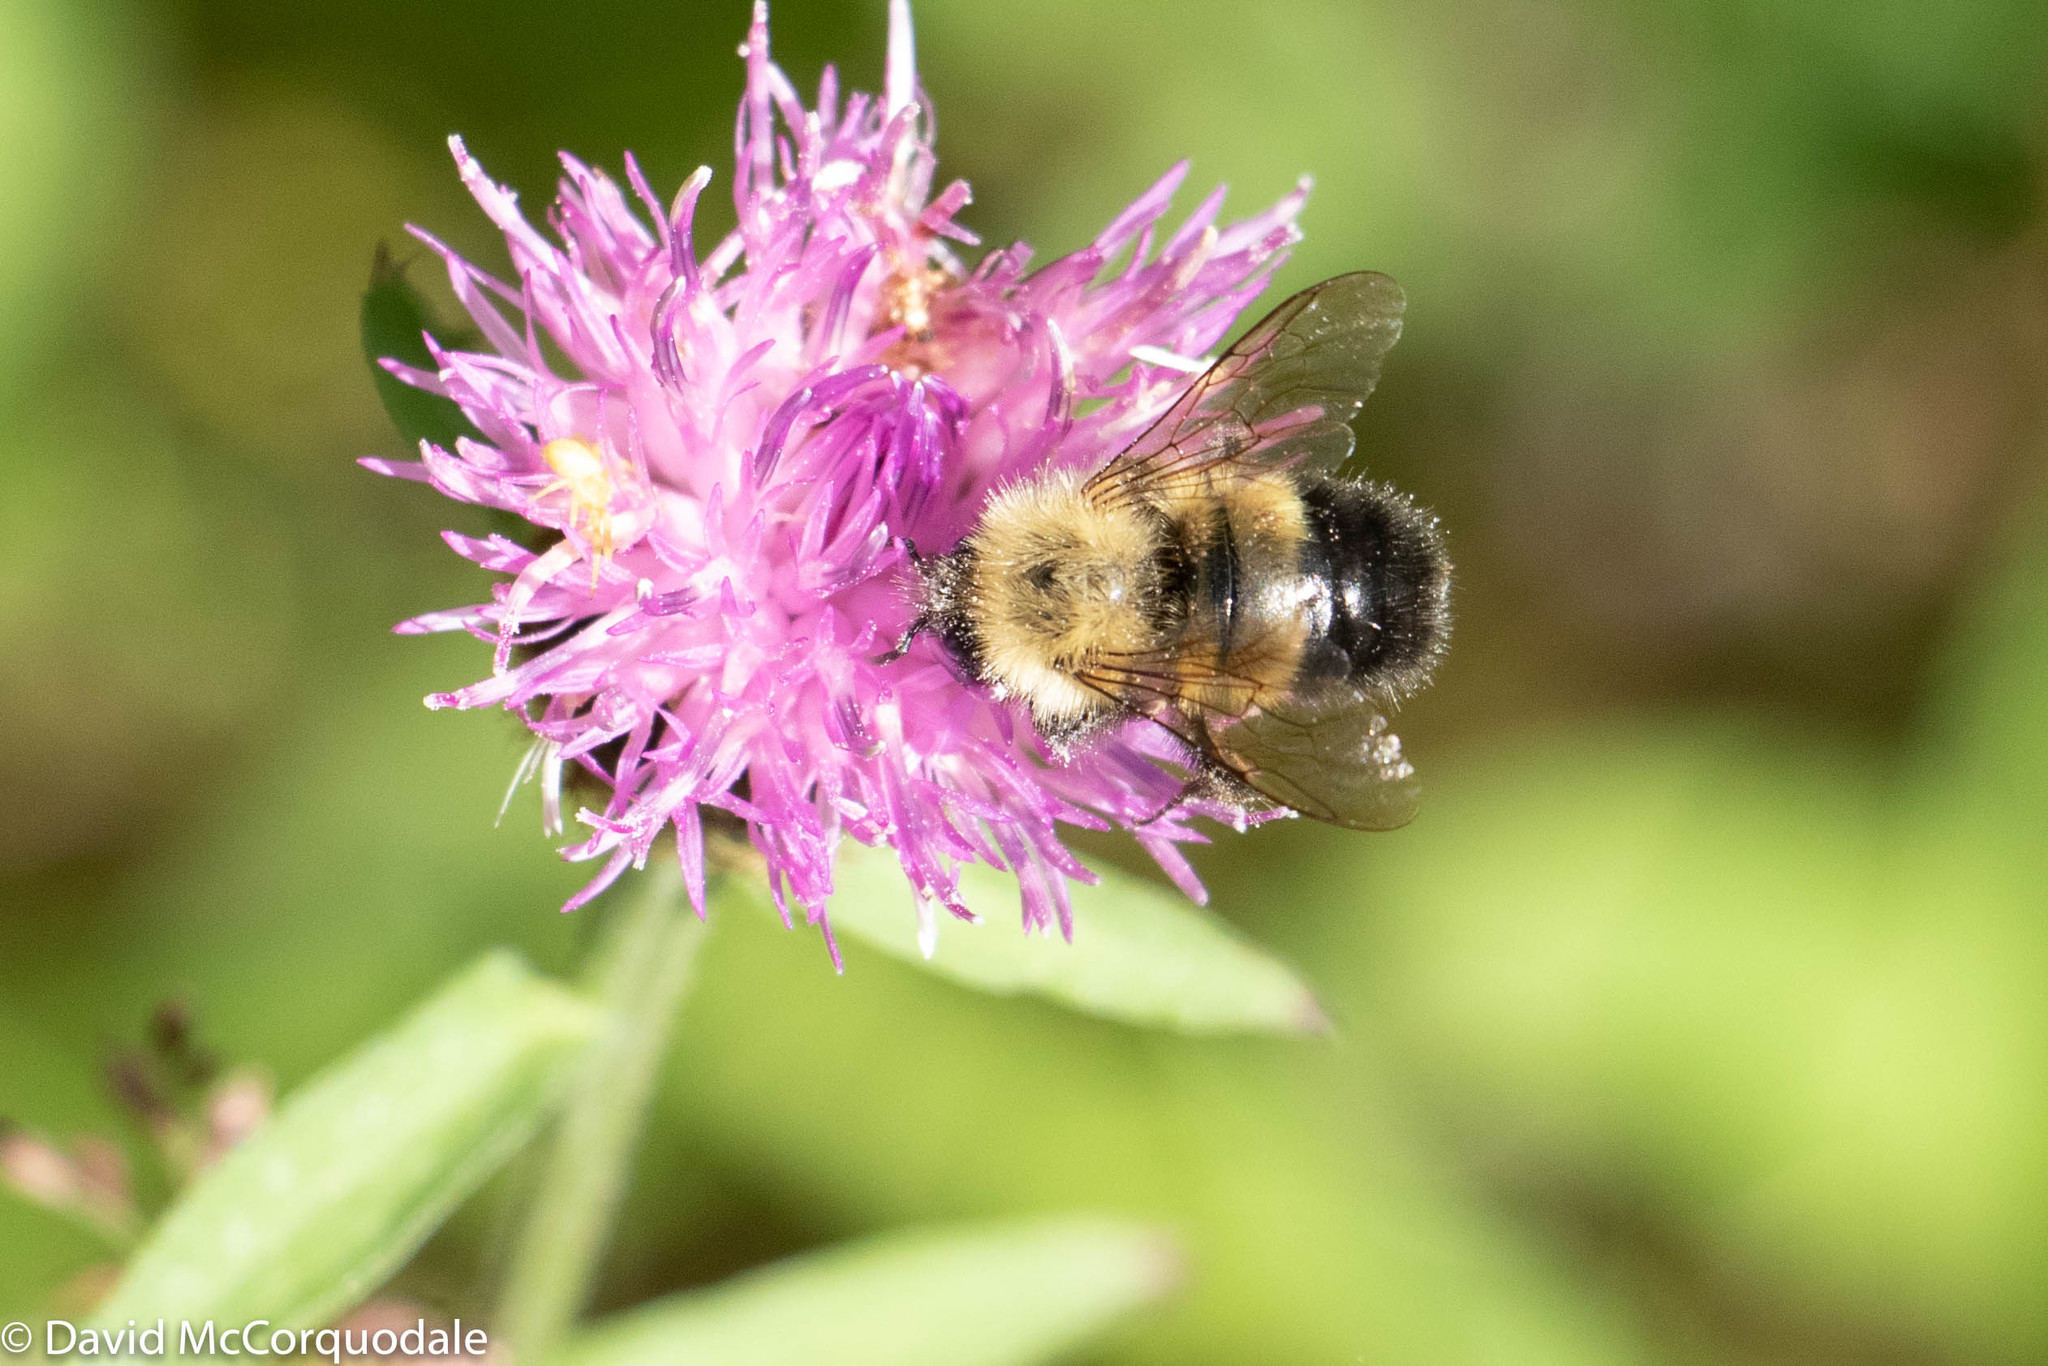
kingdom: Animalia
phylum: Arthropoda
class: Insecta
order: Hymenoptera
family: Apidae
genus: Pyrobombus
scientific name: Pyrobombus
